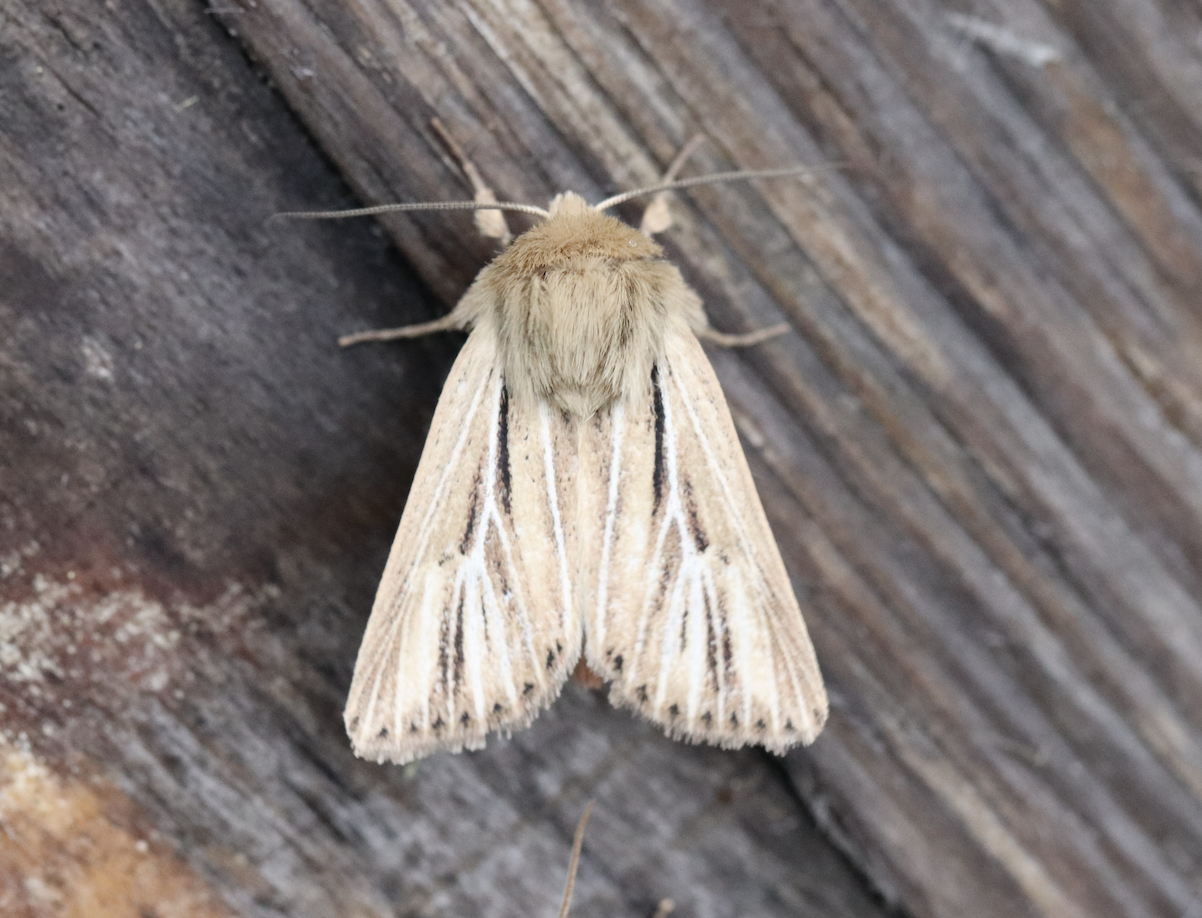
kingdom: Animalia
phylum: Arthropoda
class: Insecta
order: Lepidoptera
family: Noctuidae
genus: Mythimna
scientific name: Mythimna anderreggii
